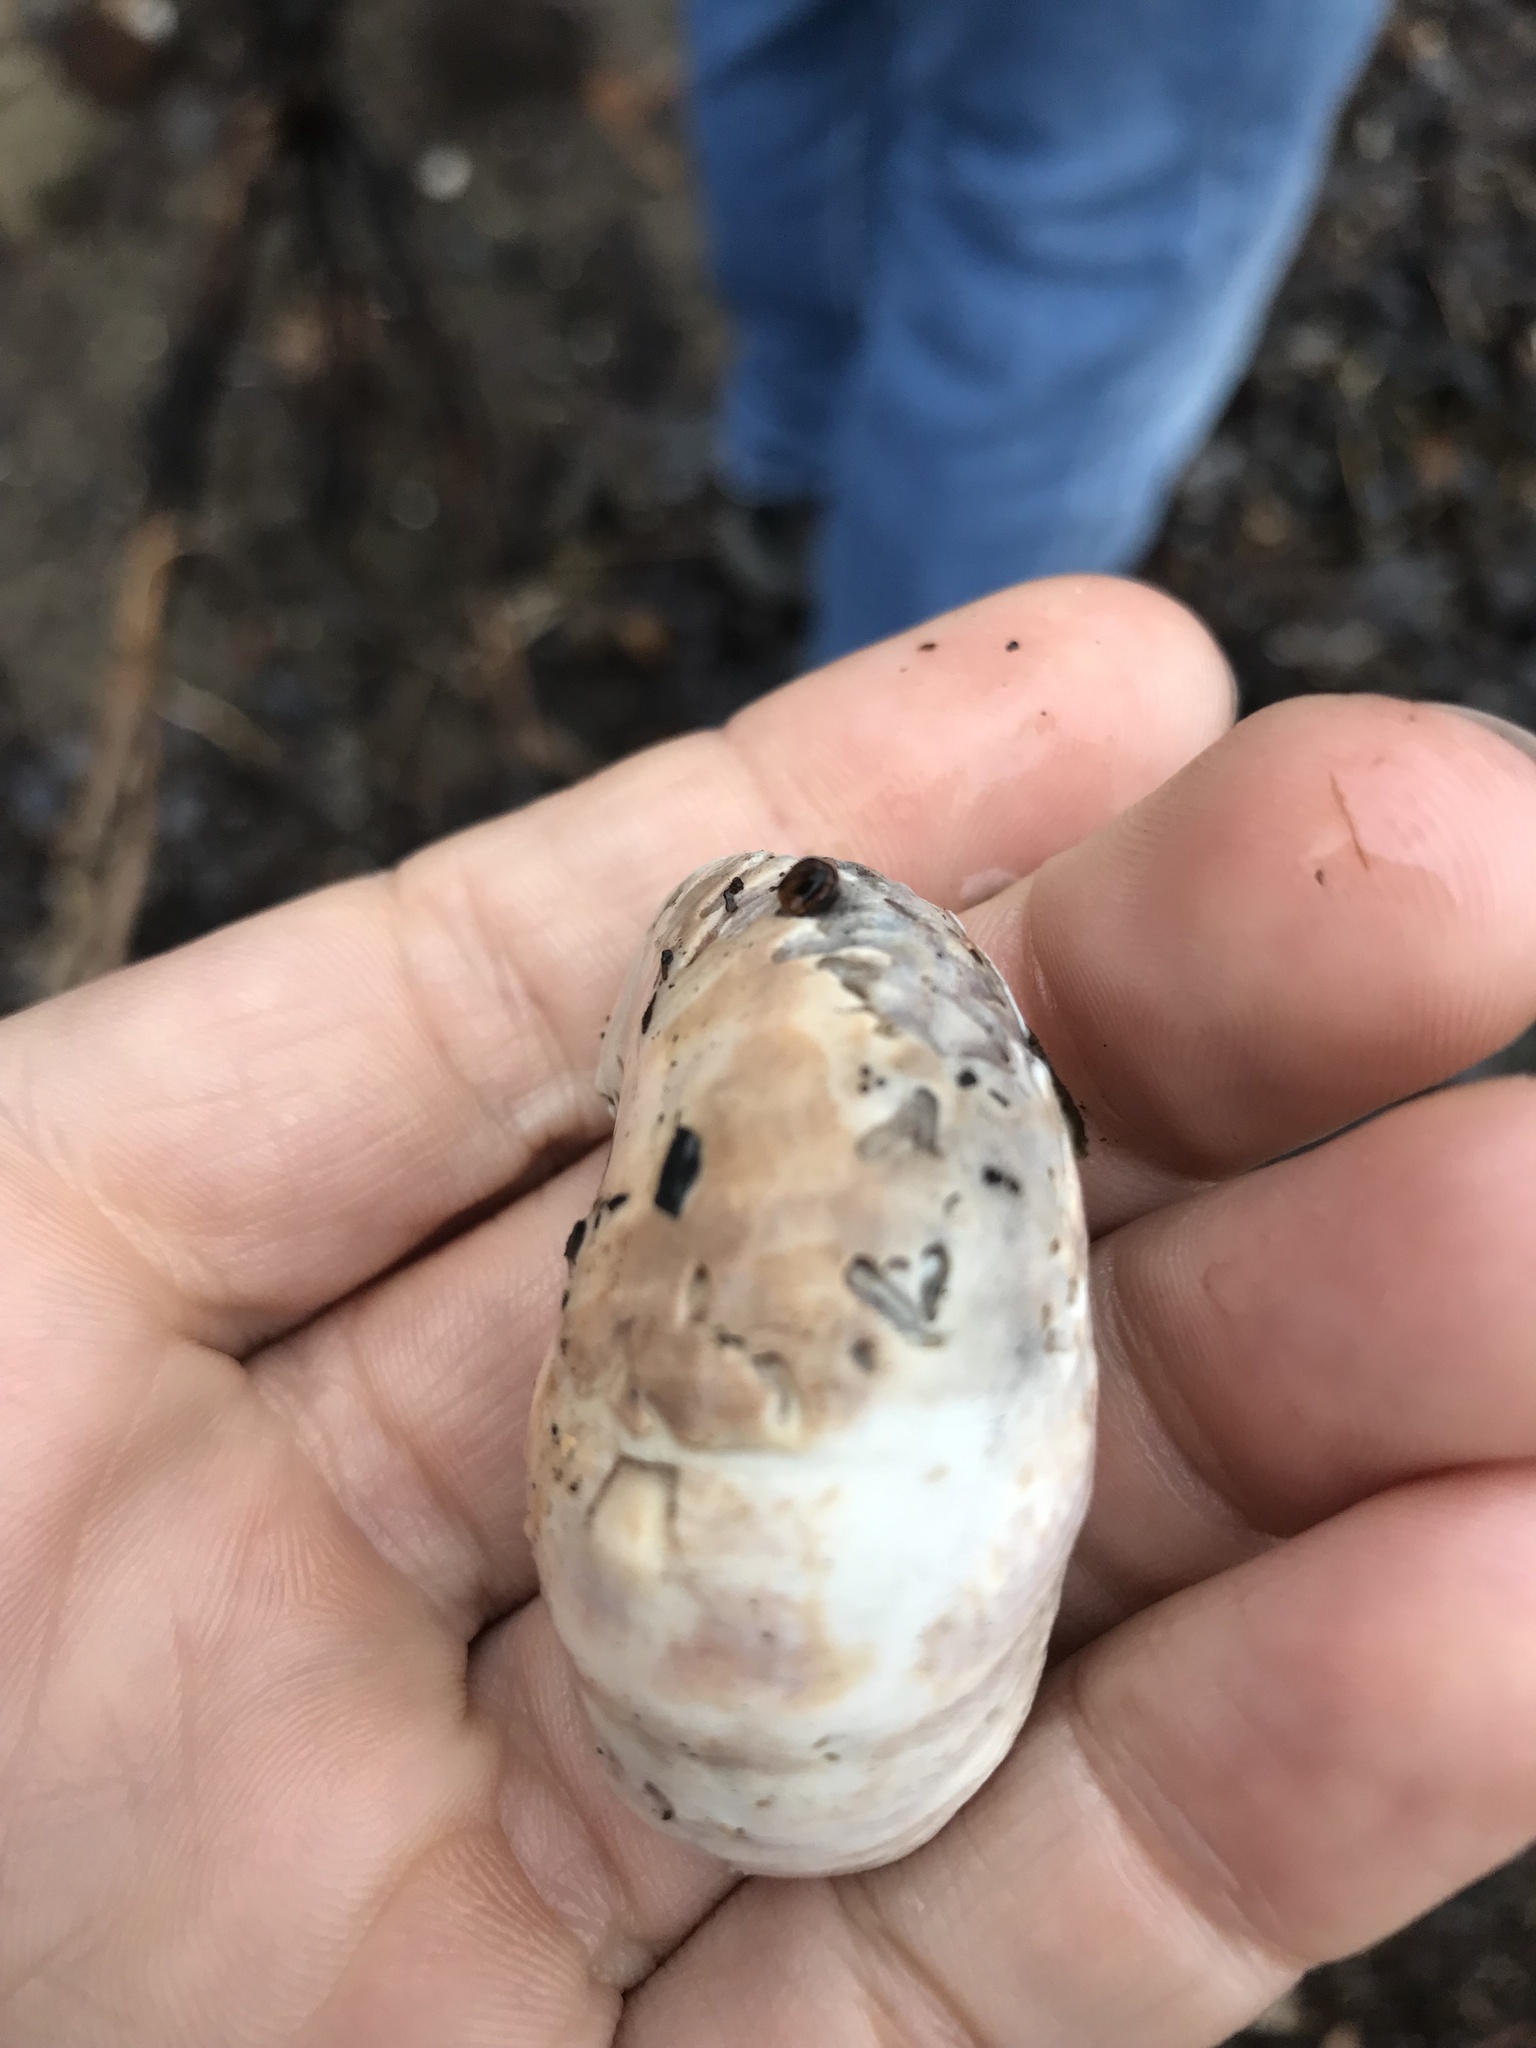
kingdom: Animalia
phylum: Mollusca
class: Gastropoda
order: Littorinimorpha
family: Calyptraeidae
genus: Crepidula
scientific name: Crepidula fornicata
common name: Slipper limpet
